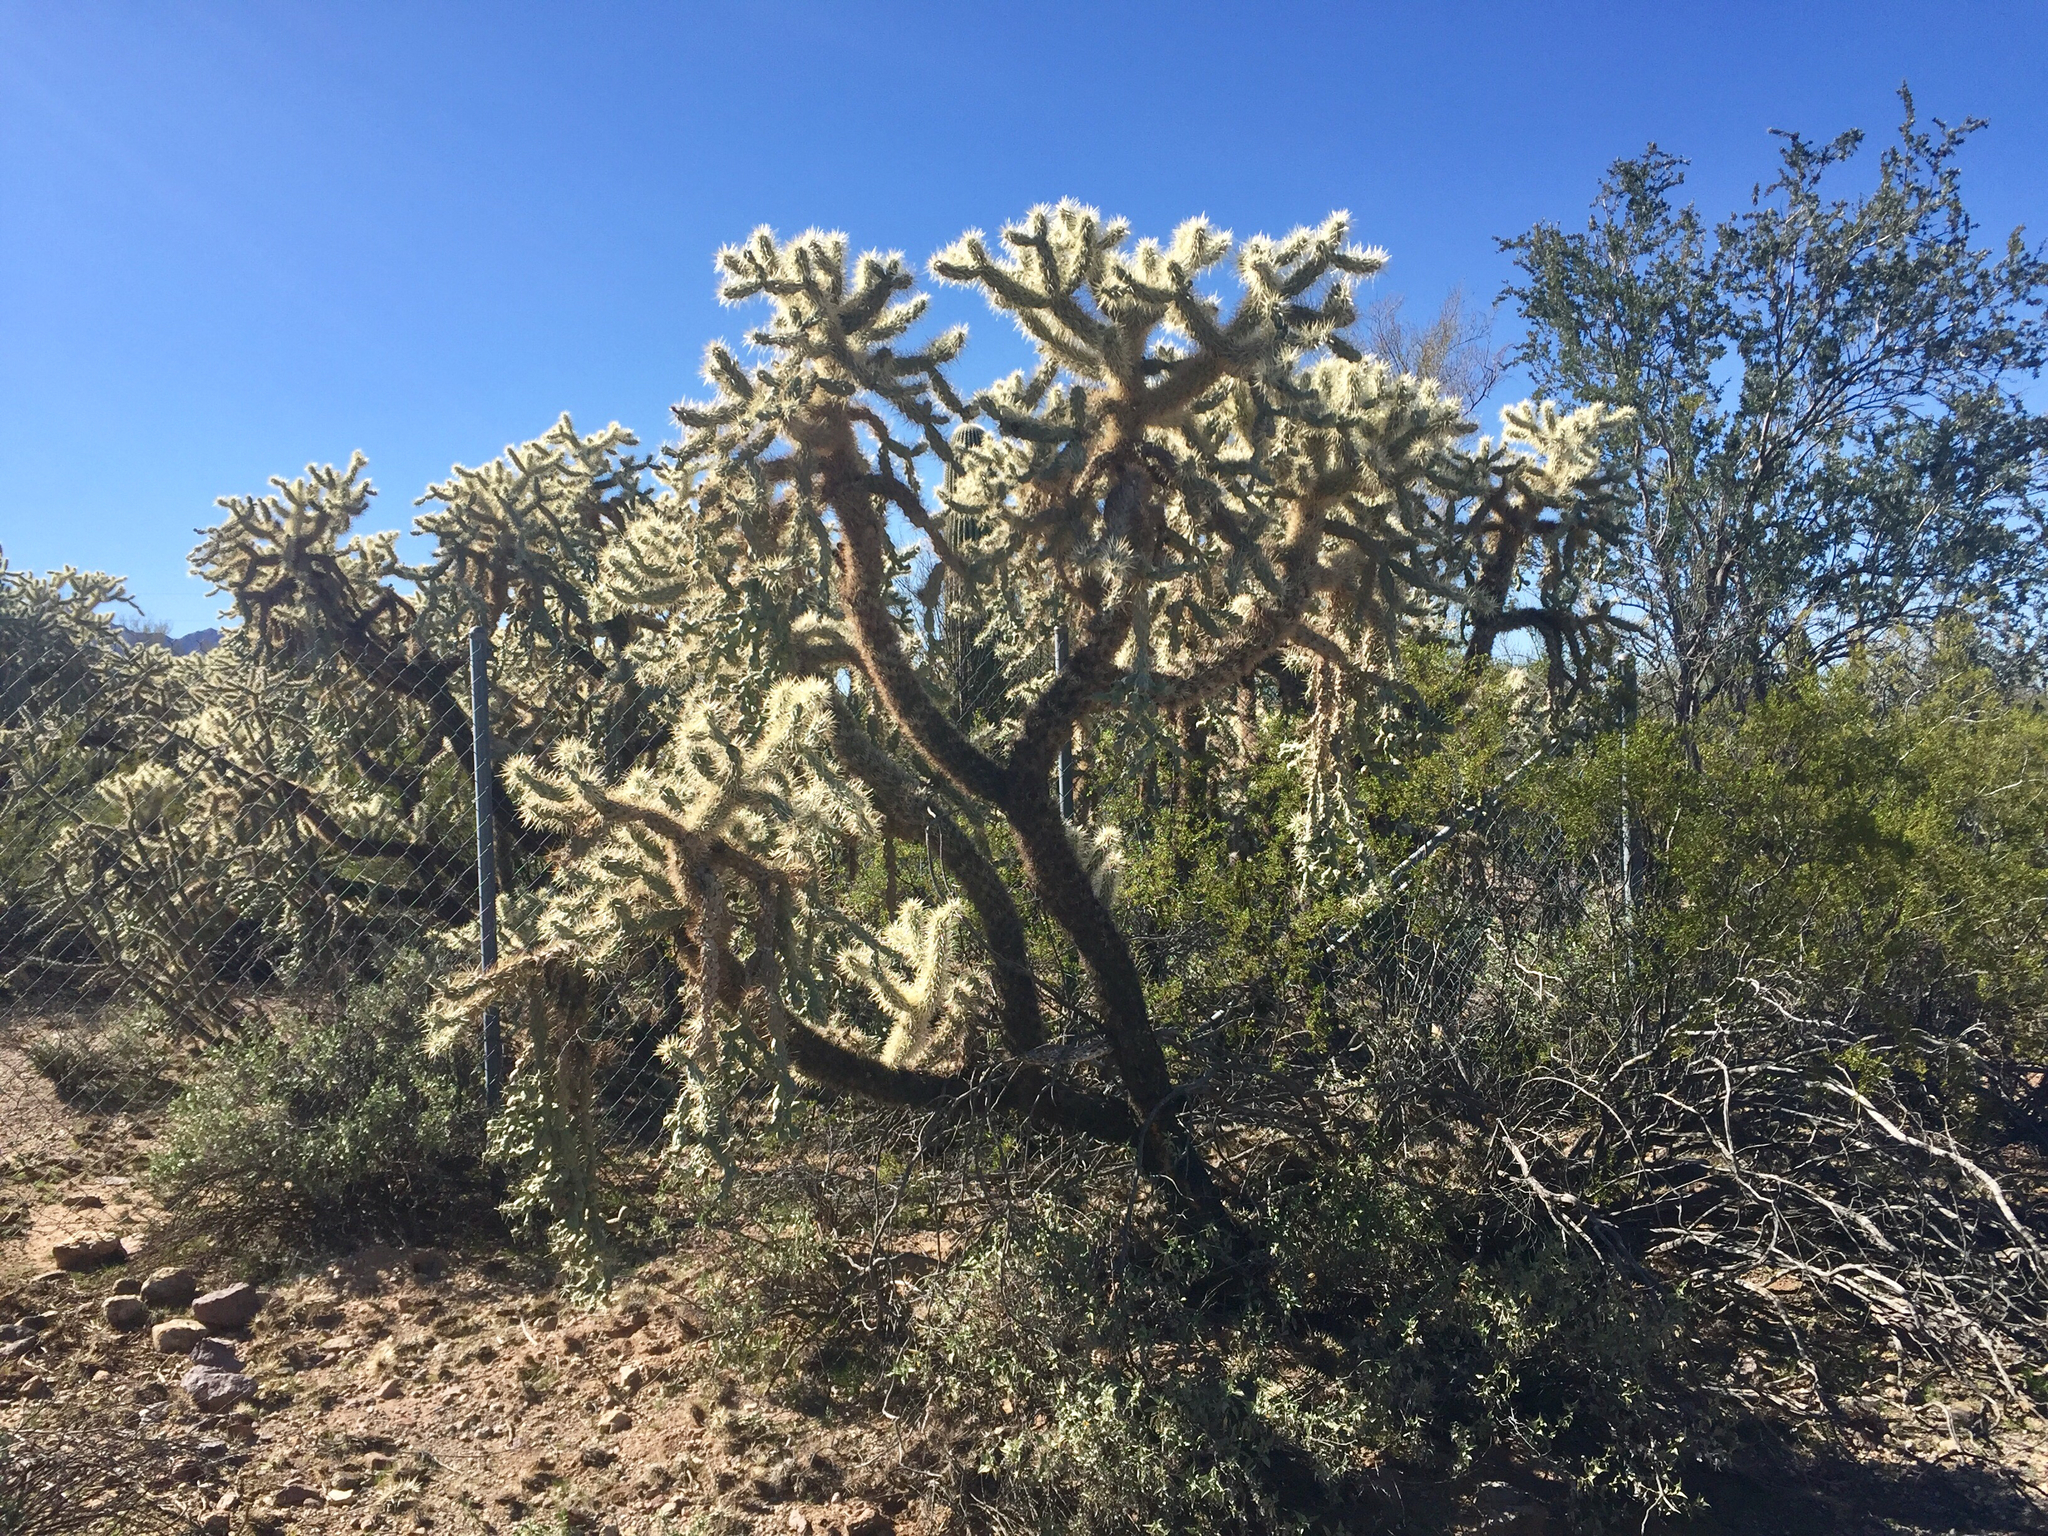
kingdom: Plantae
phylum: Tracheophyta
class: Magnoliopsida
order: Caryophyllales
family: Cactaceae
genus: Cylindropuntia
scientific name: Cylindropuntia fulgida
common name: Jumping cholla
